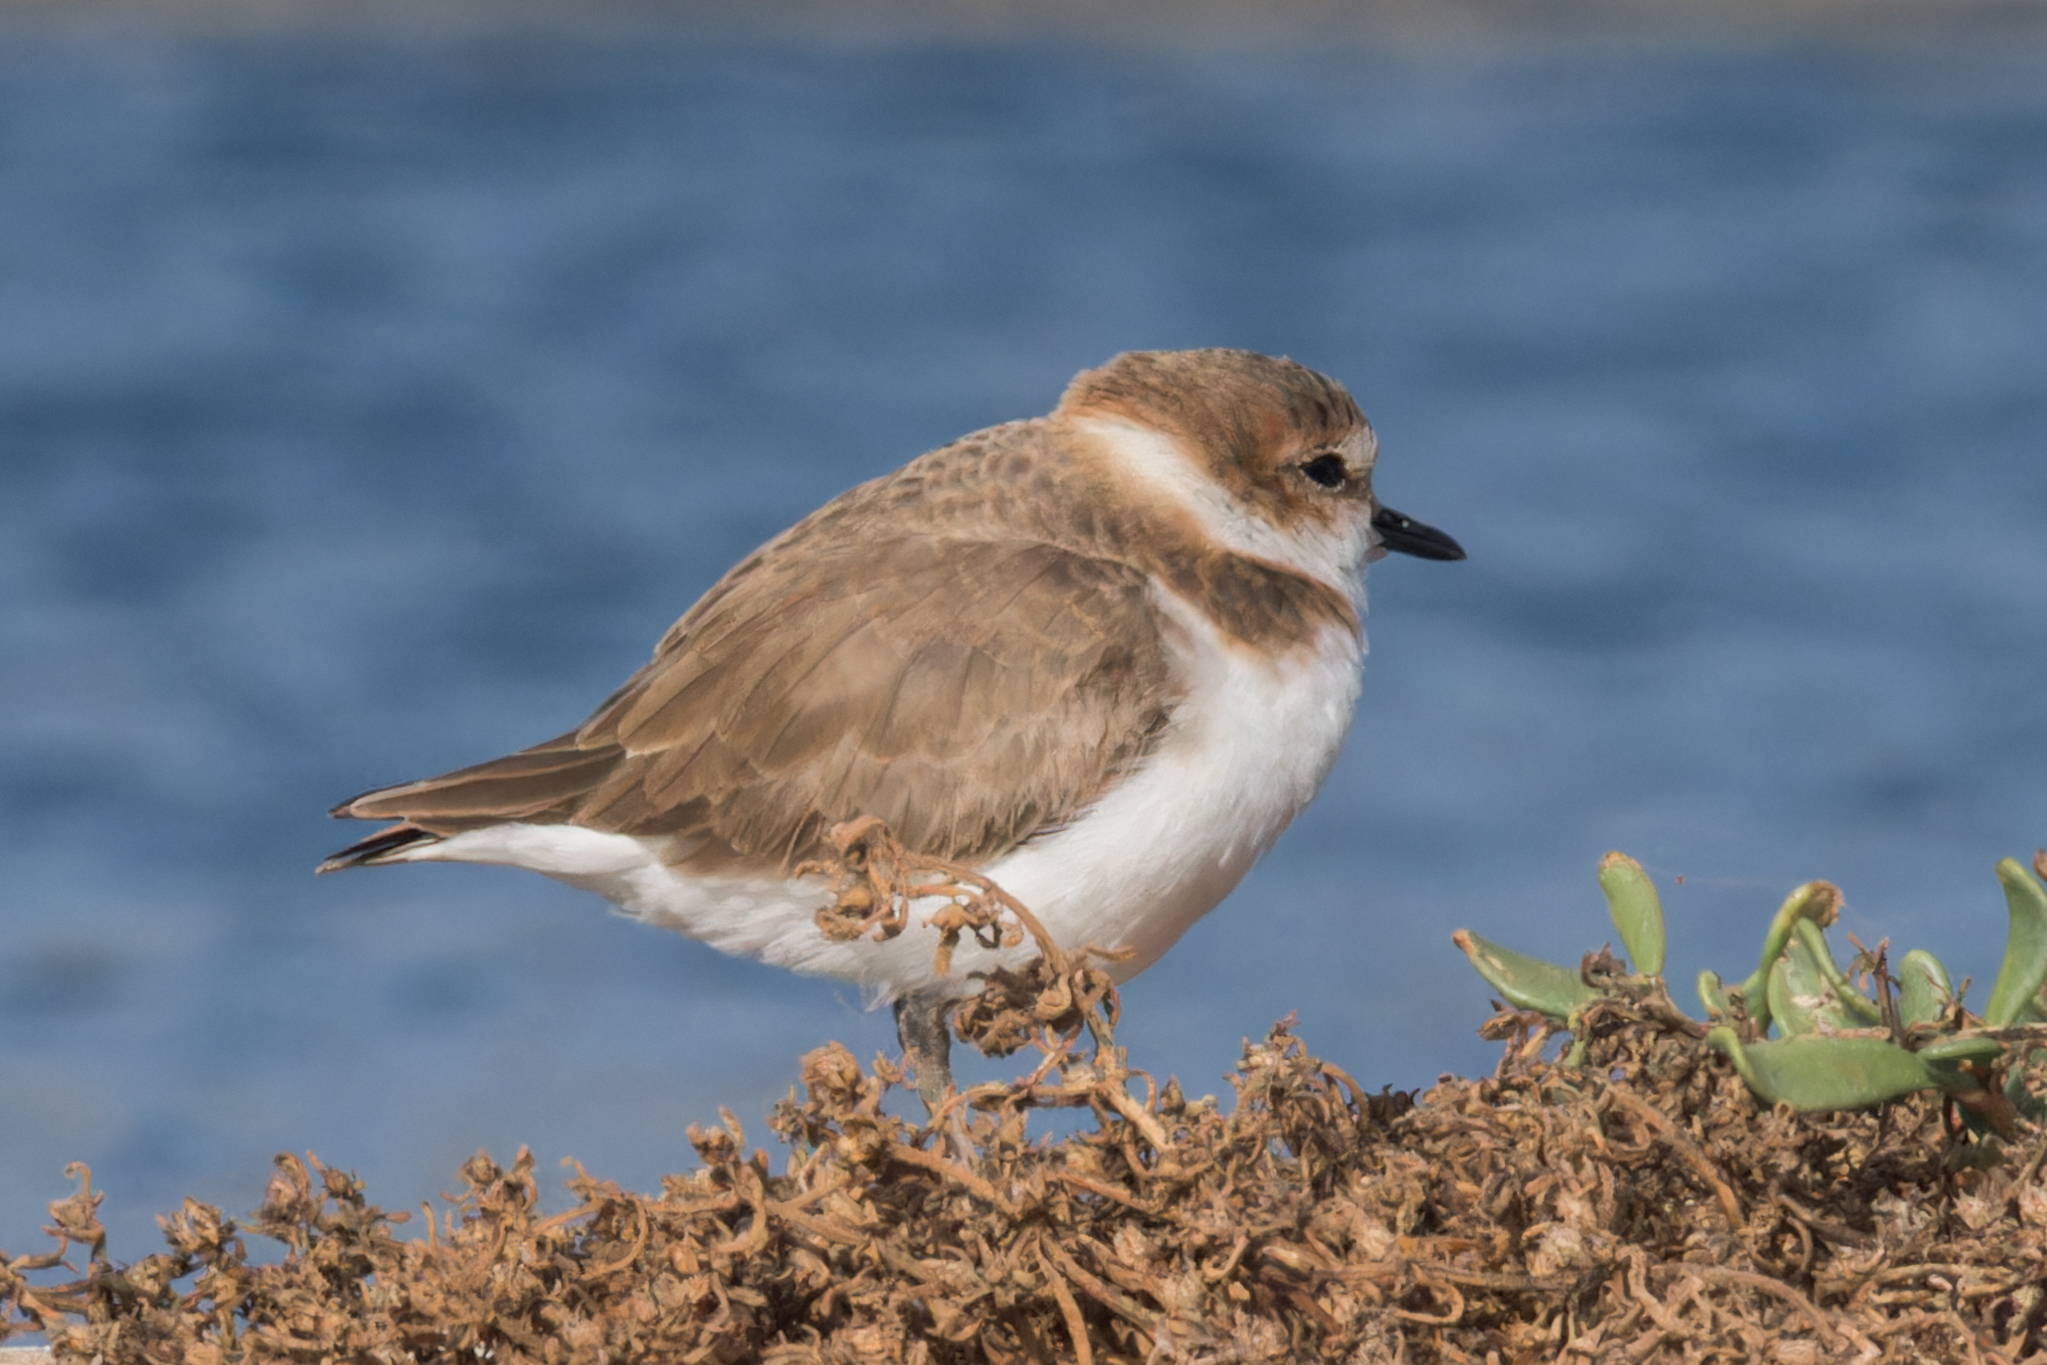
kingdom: Animalia
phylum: Chordata
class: Aves
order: Charadriiformes
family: Charadriidae
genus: Charadrius
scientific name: Charadrius alexandrinus
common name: Kentish plover
